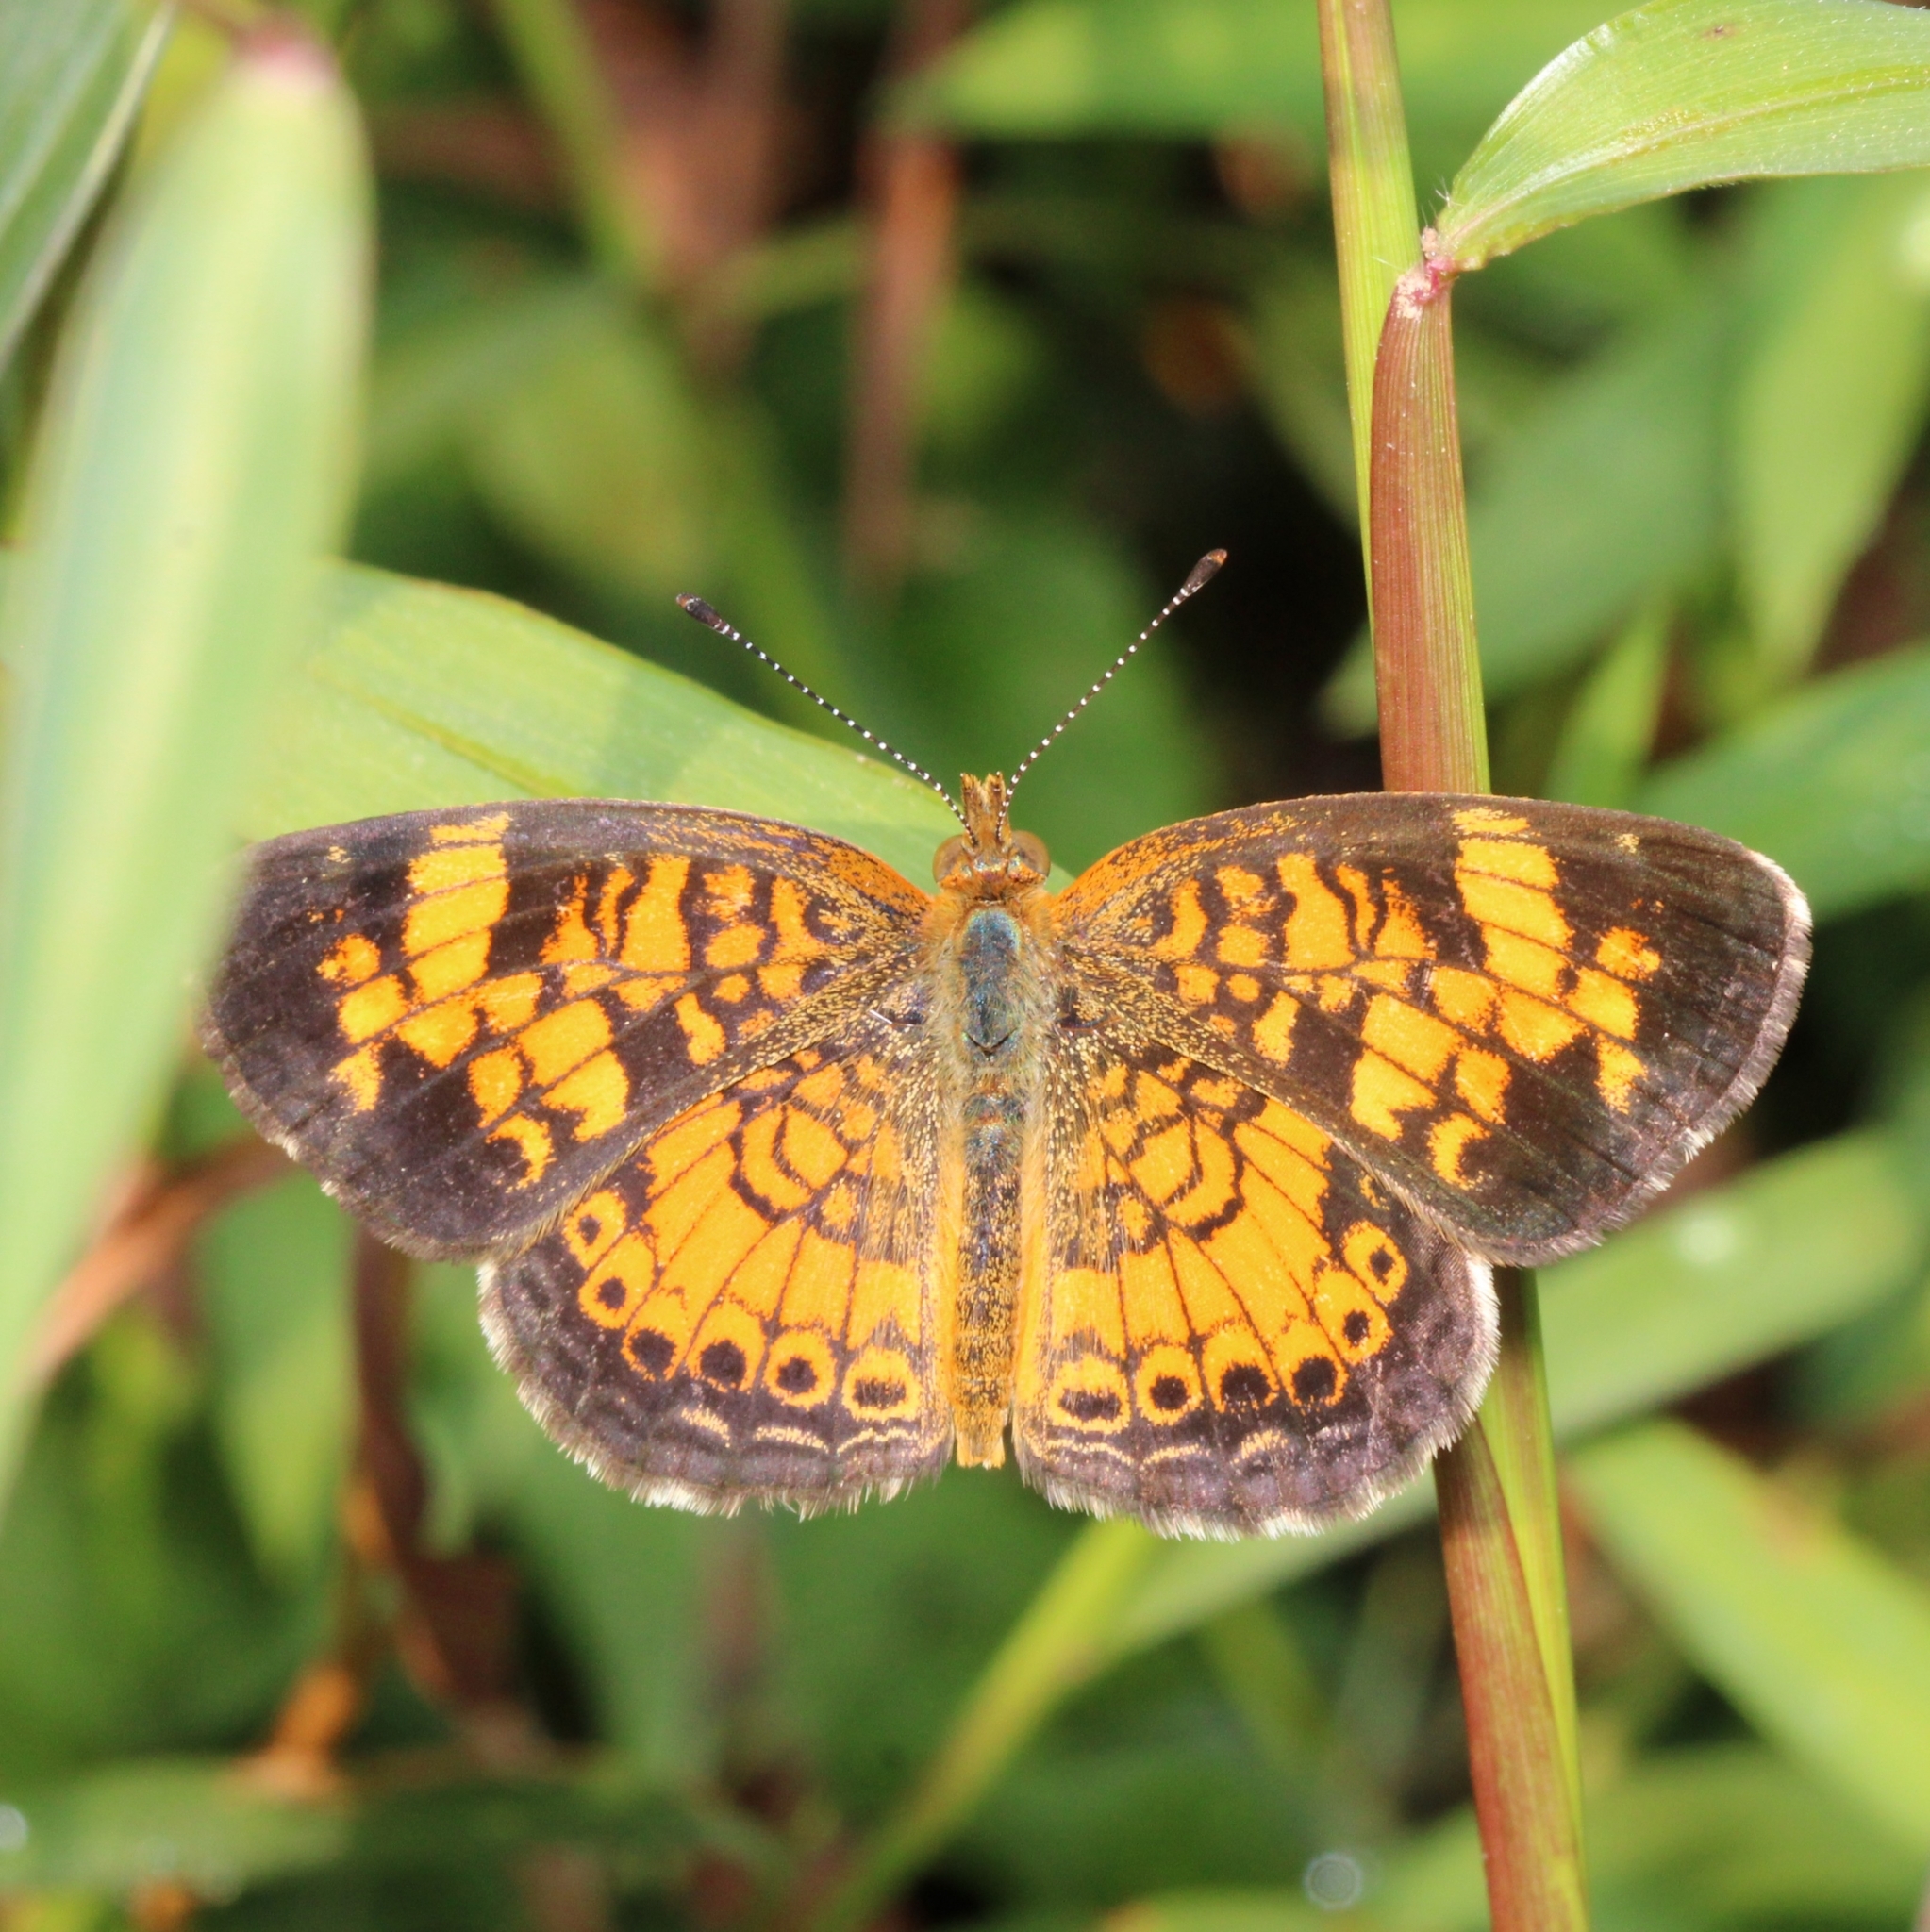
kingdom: Animalia
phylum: Arthropoda
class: Insecta
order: Lepidoptera
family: Nymphalidae
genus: Phyciodes
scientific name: Phyciodes tharos
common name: Pearl crescent
